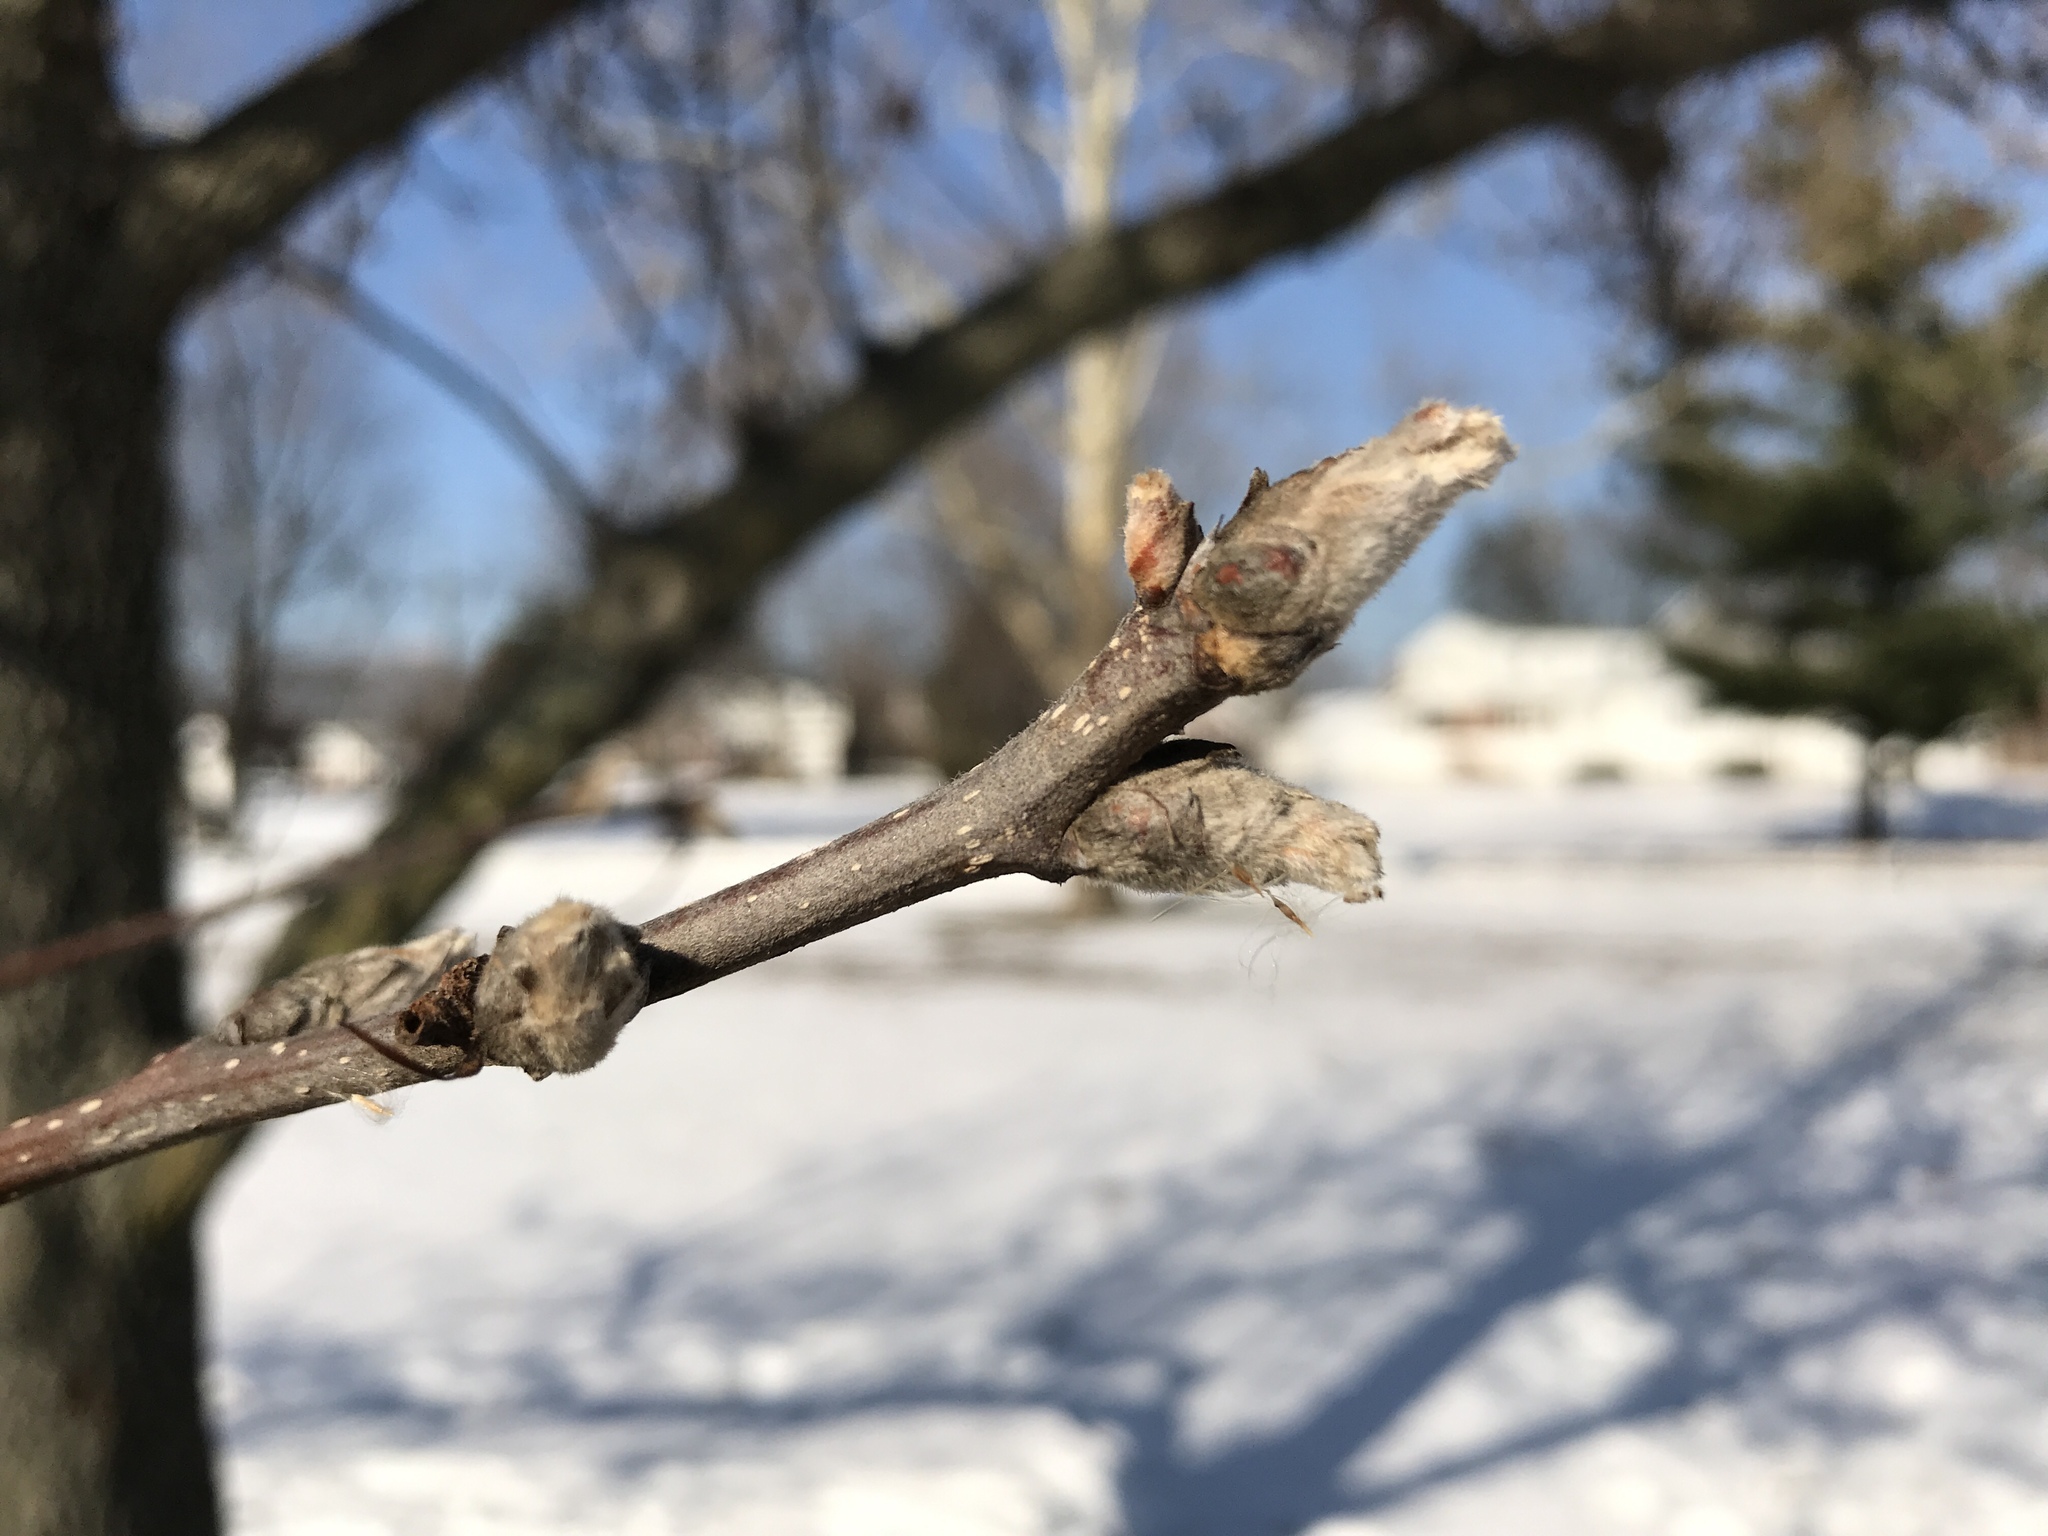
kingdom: Plantae
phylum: Tracheophyta
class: Magnoliopsida
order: Rosales
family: Rosaceae
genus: Pyrus
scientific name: Pyrus calleryana
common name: Callery pear
